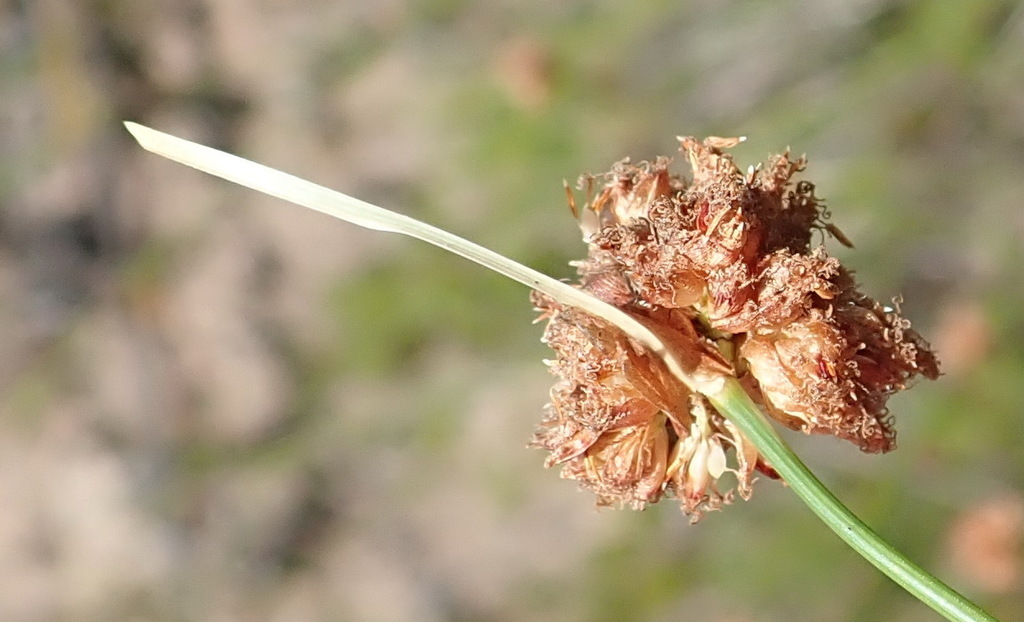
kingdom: Plantae
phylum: Tracheophyta
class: Liliopsida
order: Poales
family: Cyperaceae
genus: Ficinia
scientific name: Ficinia laciniata
